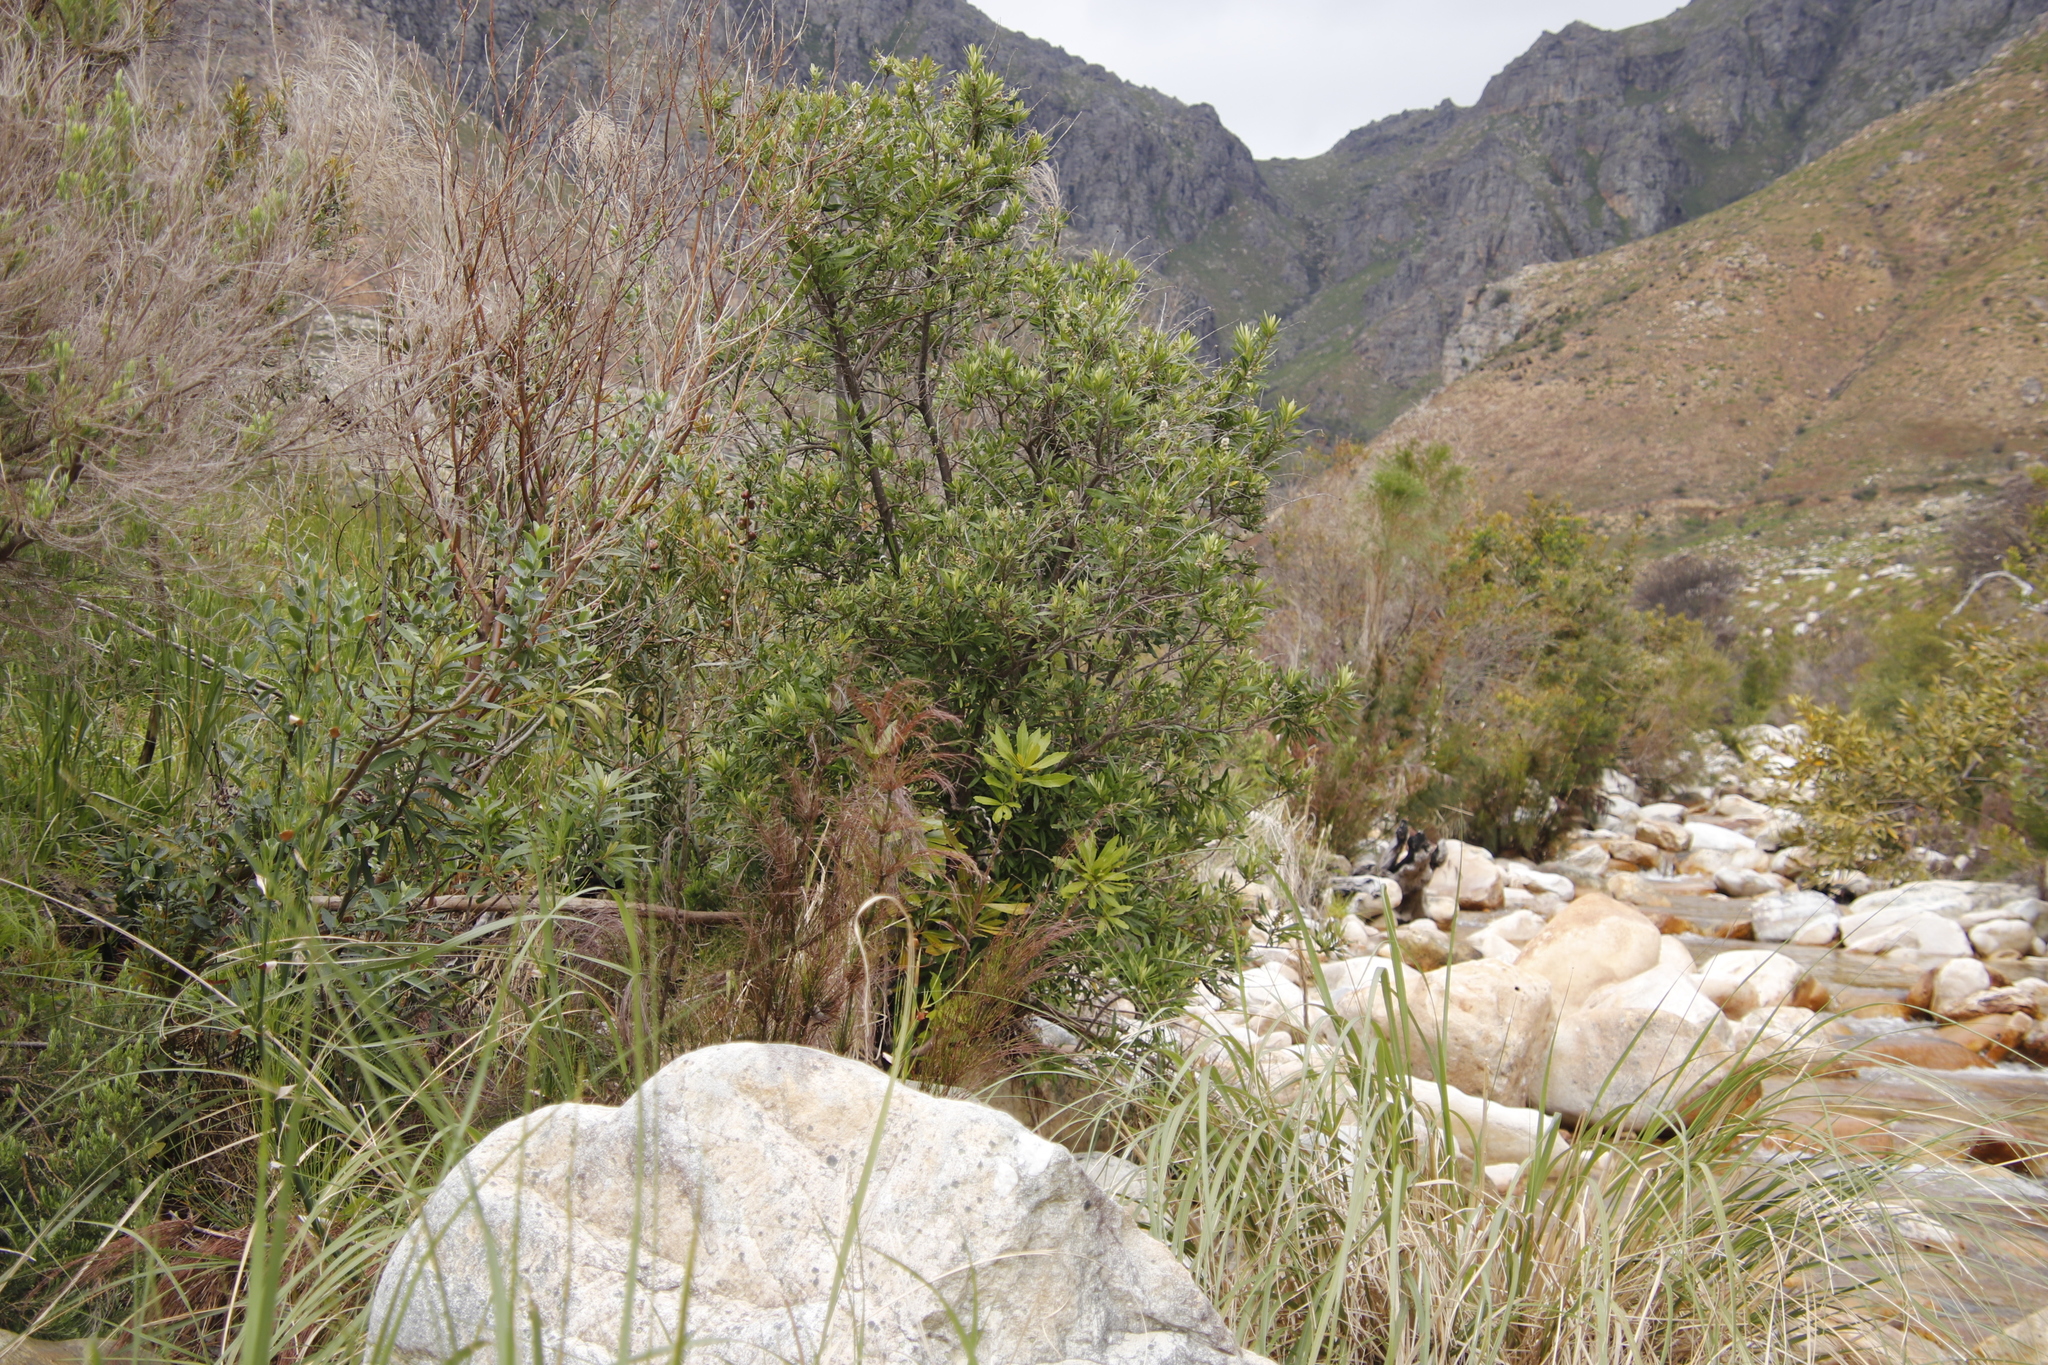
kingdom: Plantae
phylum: Tracheophyta
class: Magnoliopsida
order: Asterales
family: Asteraceae
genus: Brachylaena
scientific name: Brachylaena neriifolia
